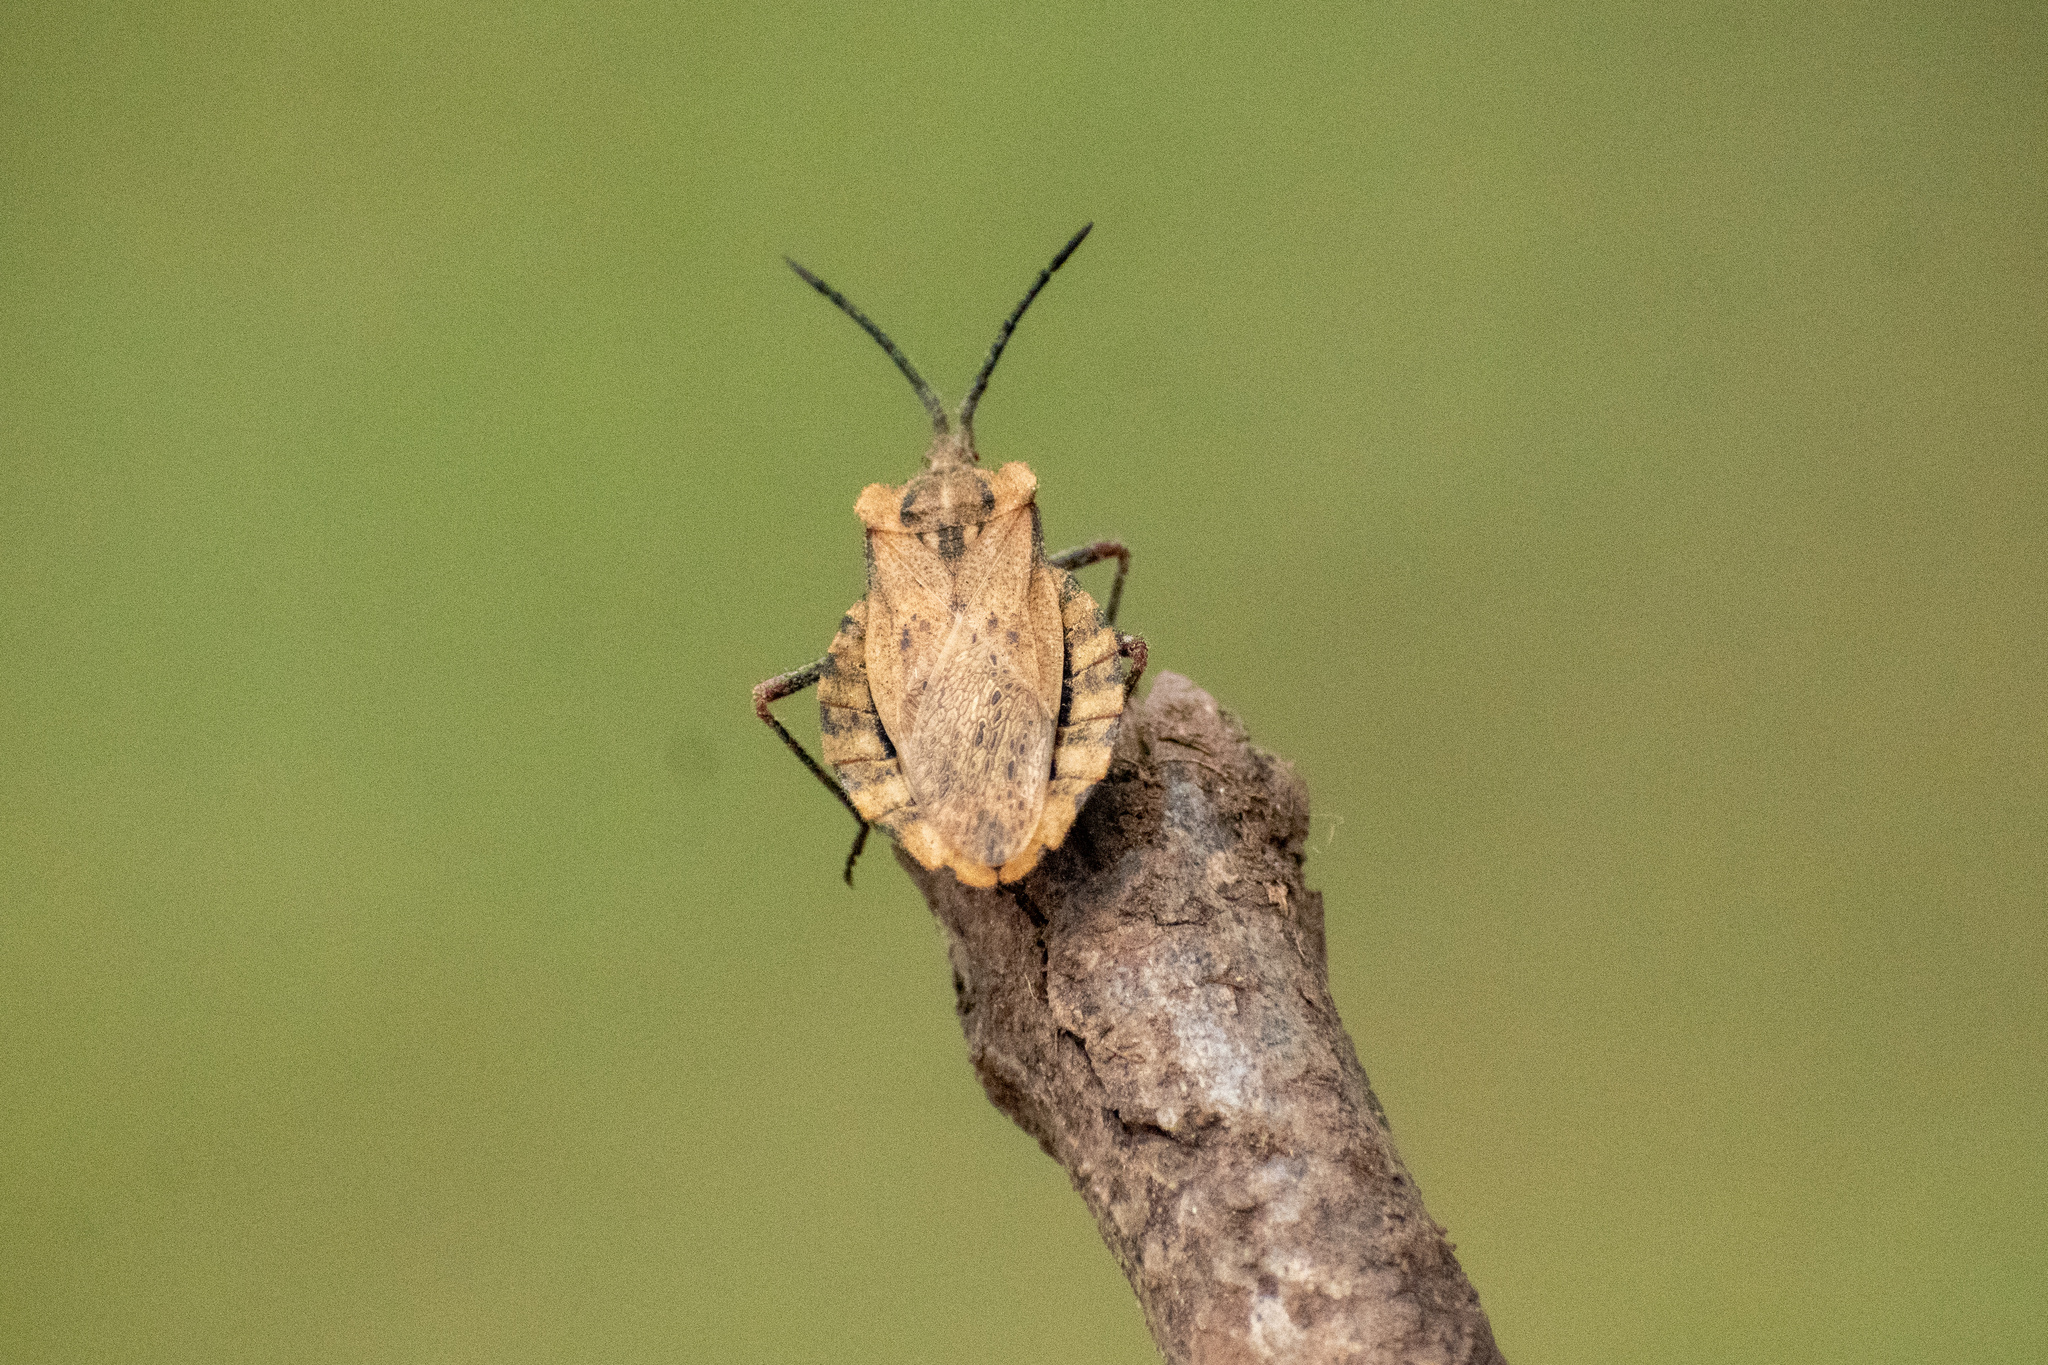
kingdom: Animalia
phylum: Arthropoda
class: Insecta
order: Hemiptera
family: Coreidae
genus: Spartocera
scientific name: Spartocera fusca
